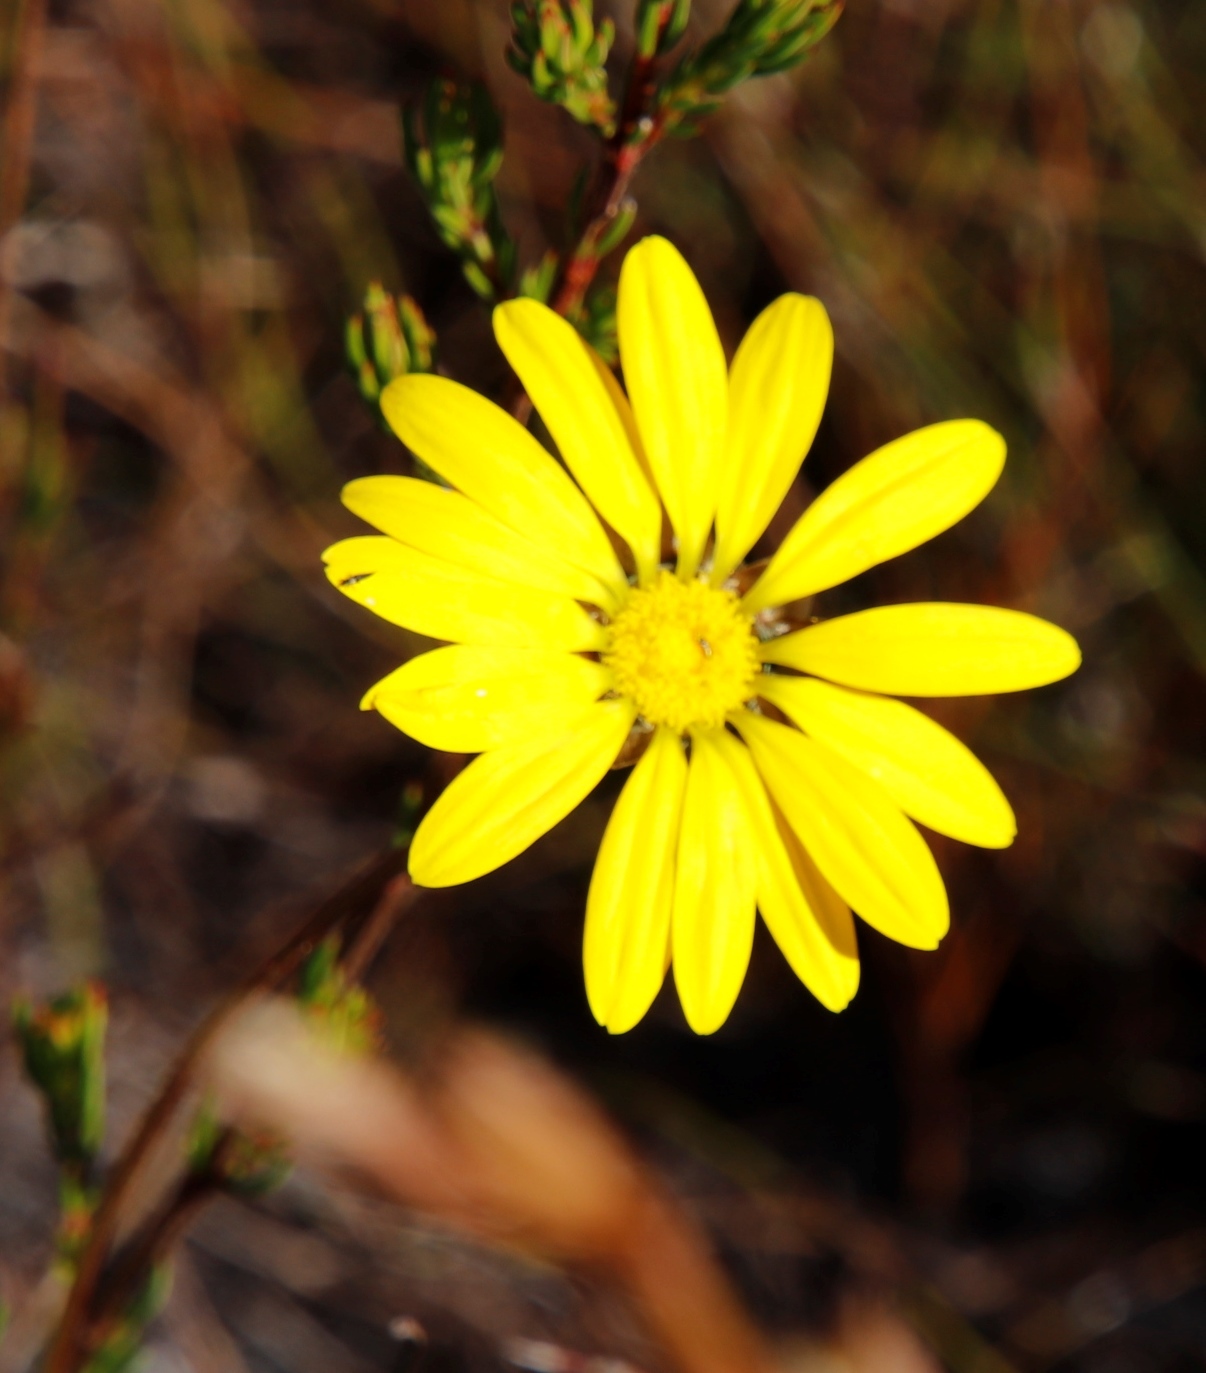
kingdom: Plantae
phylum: Tracheophyta
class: Magnoliopsida
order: Asterales
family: Asteraceae
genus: Euryops
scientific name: Euryops abrotanifolius
